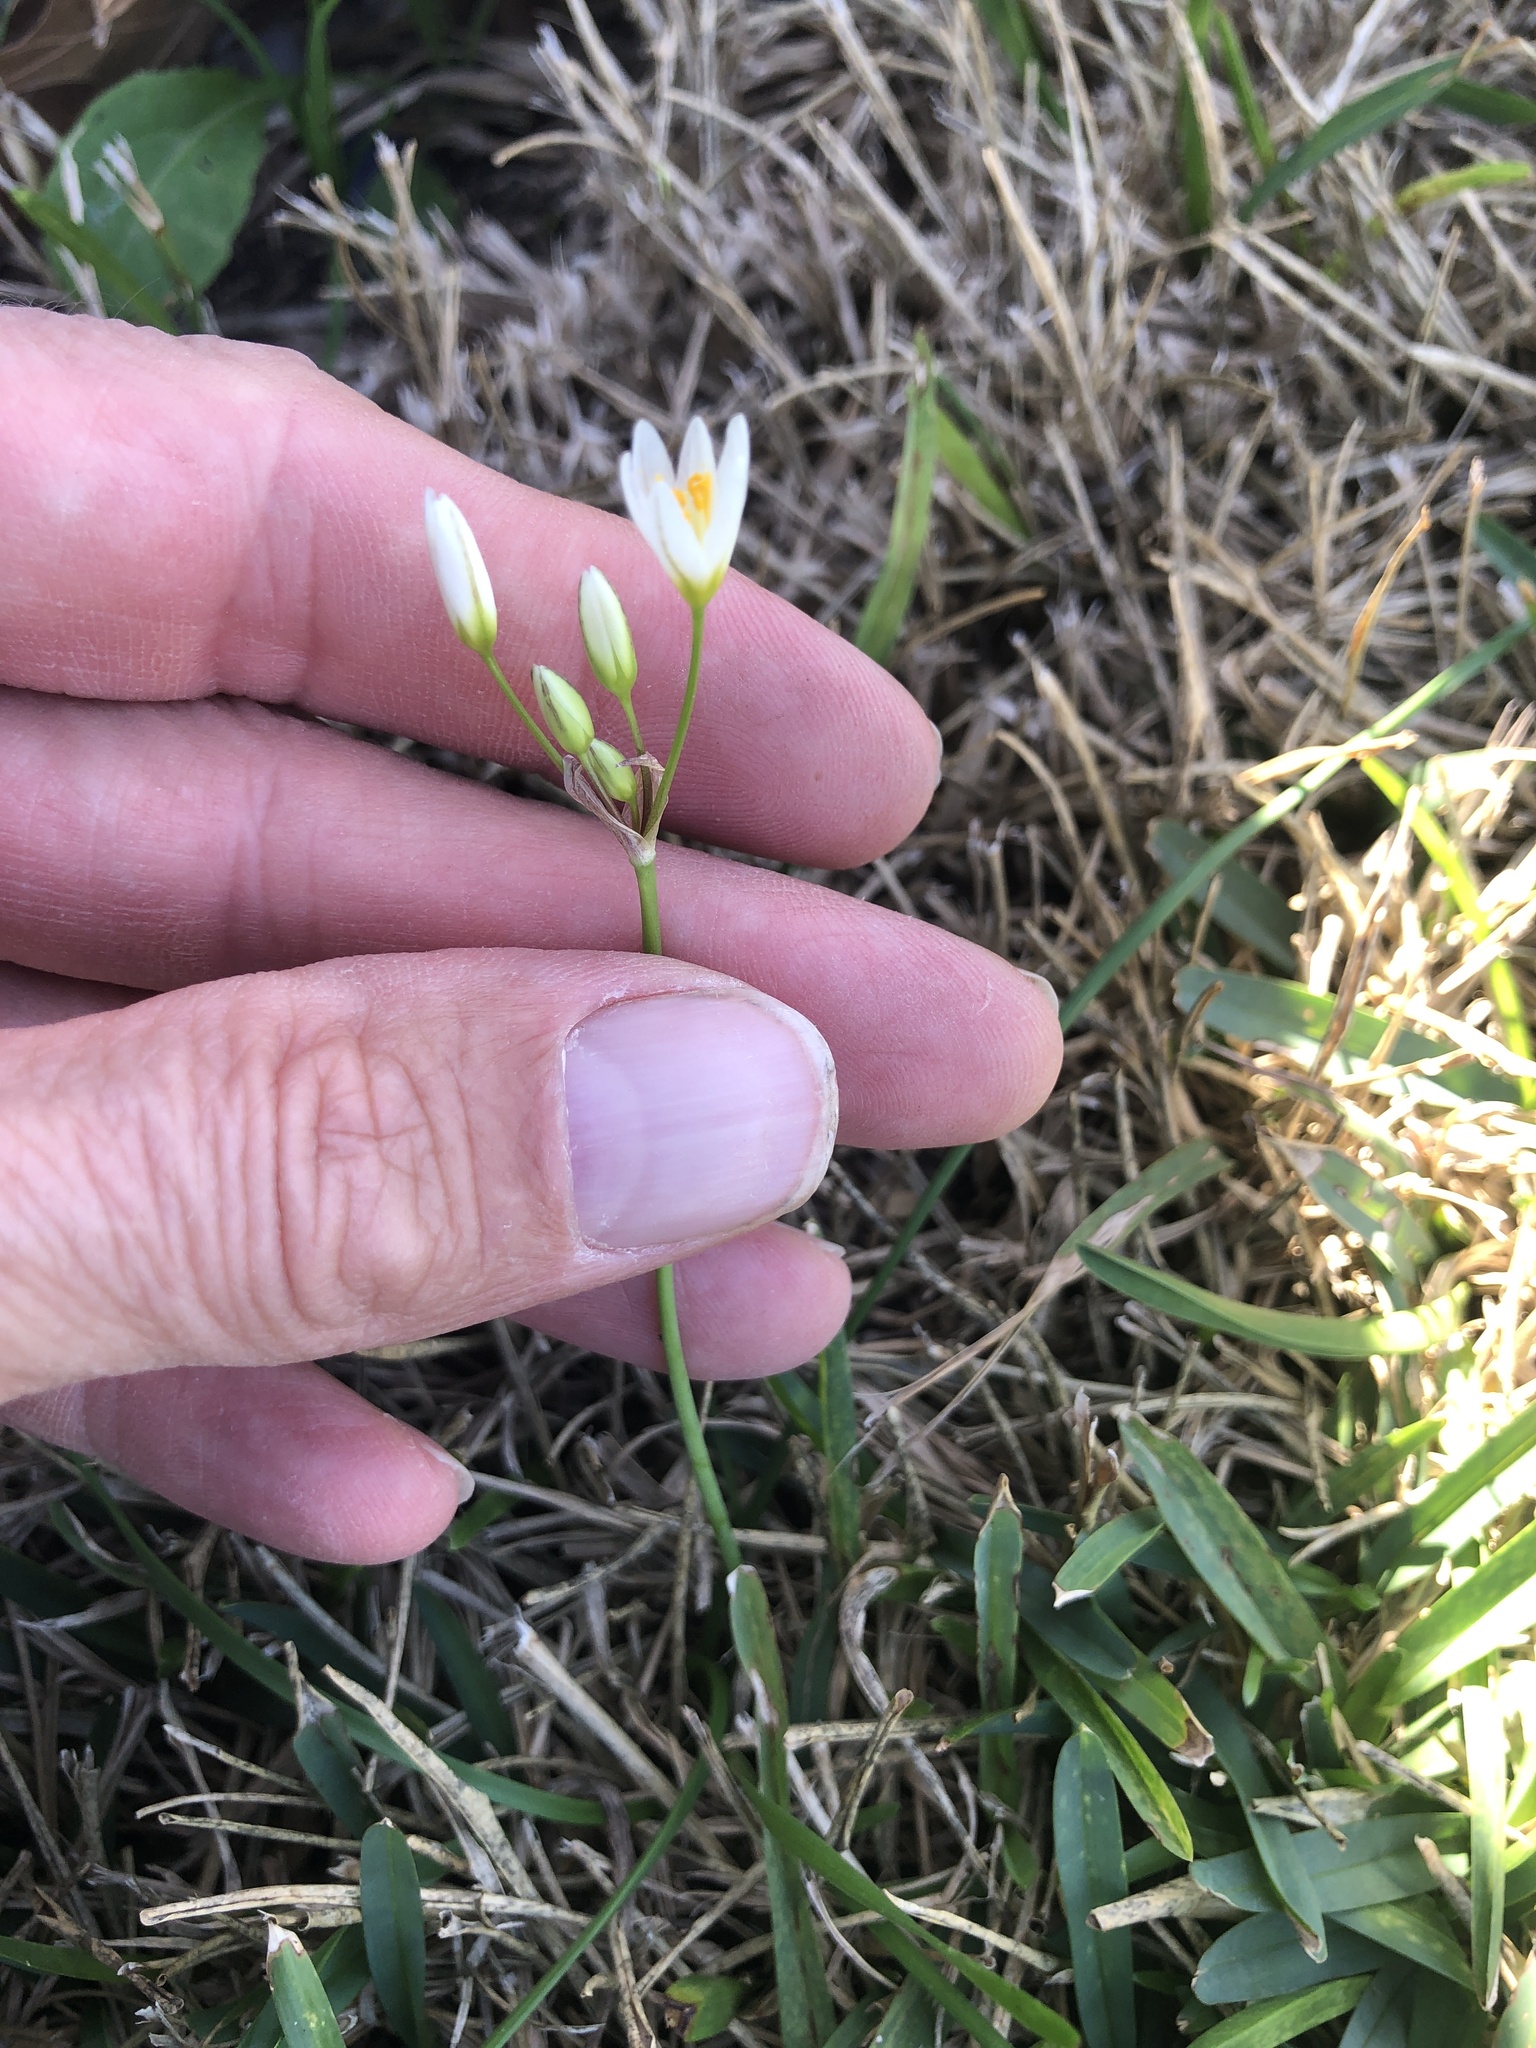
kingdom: Plantae
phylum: Tracheophyta
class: Liliopsida
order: Asparagales
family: Amaryllidaceae
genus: Nothoscordum
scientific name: Nothoscordum bivalve
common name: Crow-poison
